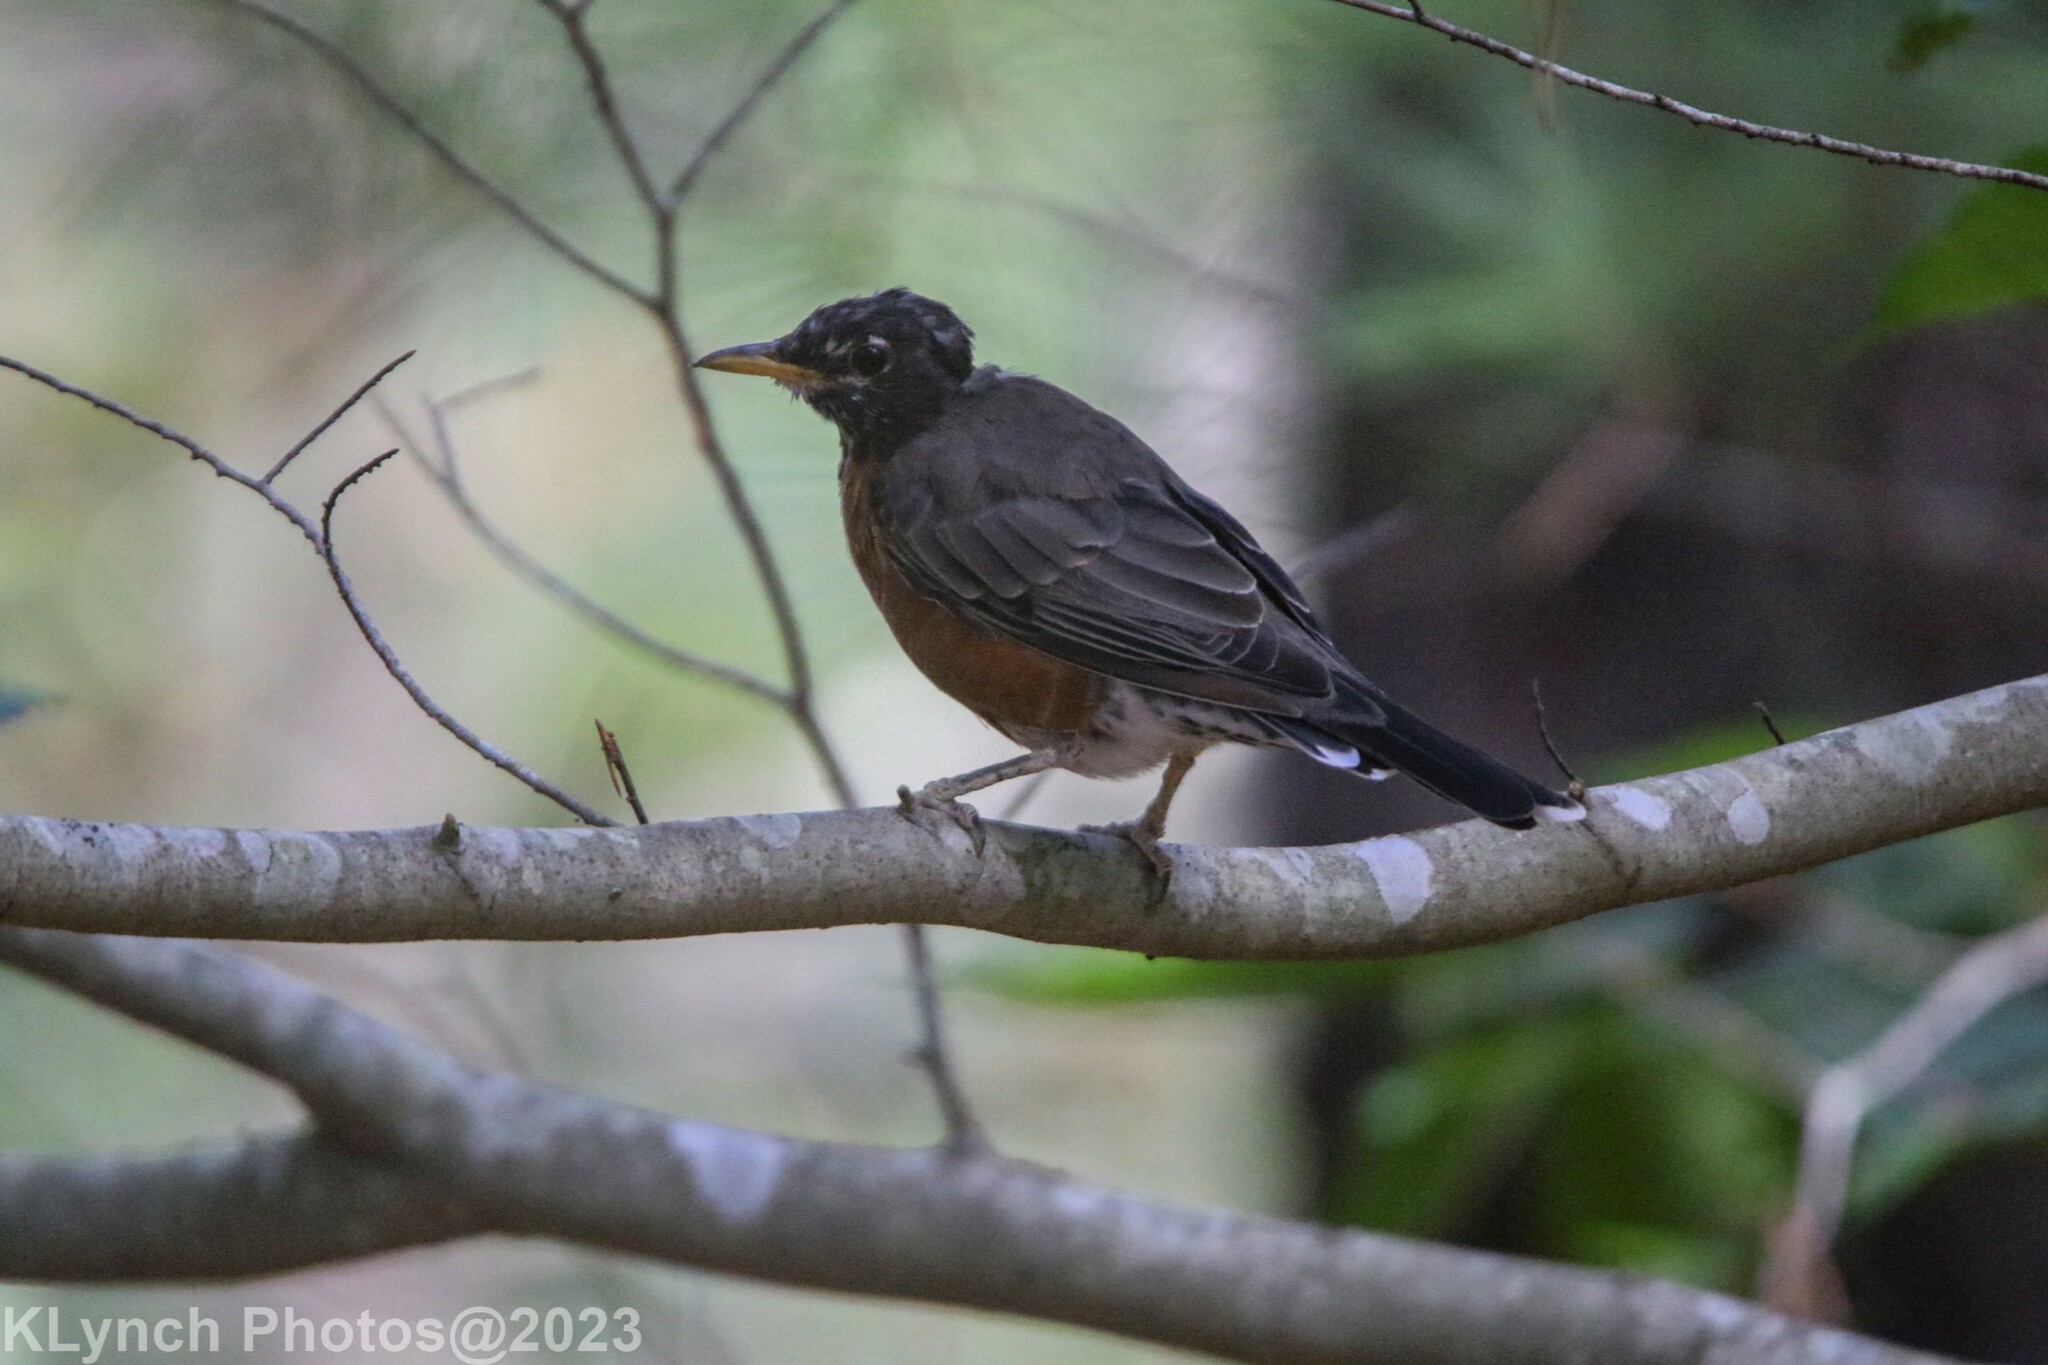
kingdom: Animalia
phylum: Chordata
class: Aves
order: Passeriformes
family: Turdidae
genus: Turdus
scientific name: Turdus migratorius
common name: American robin
